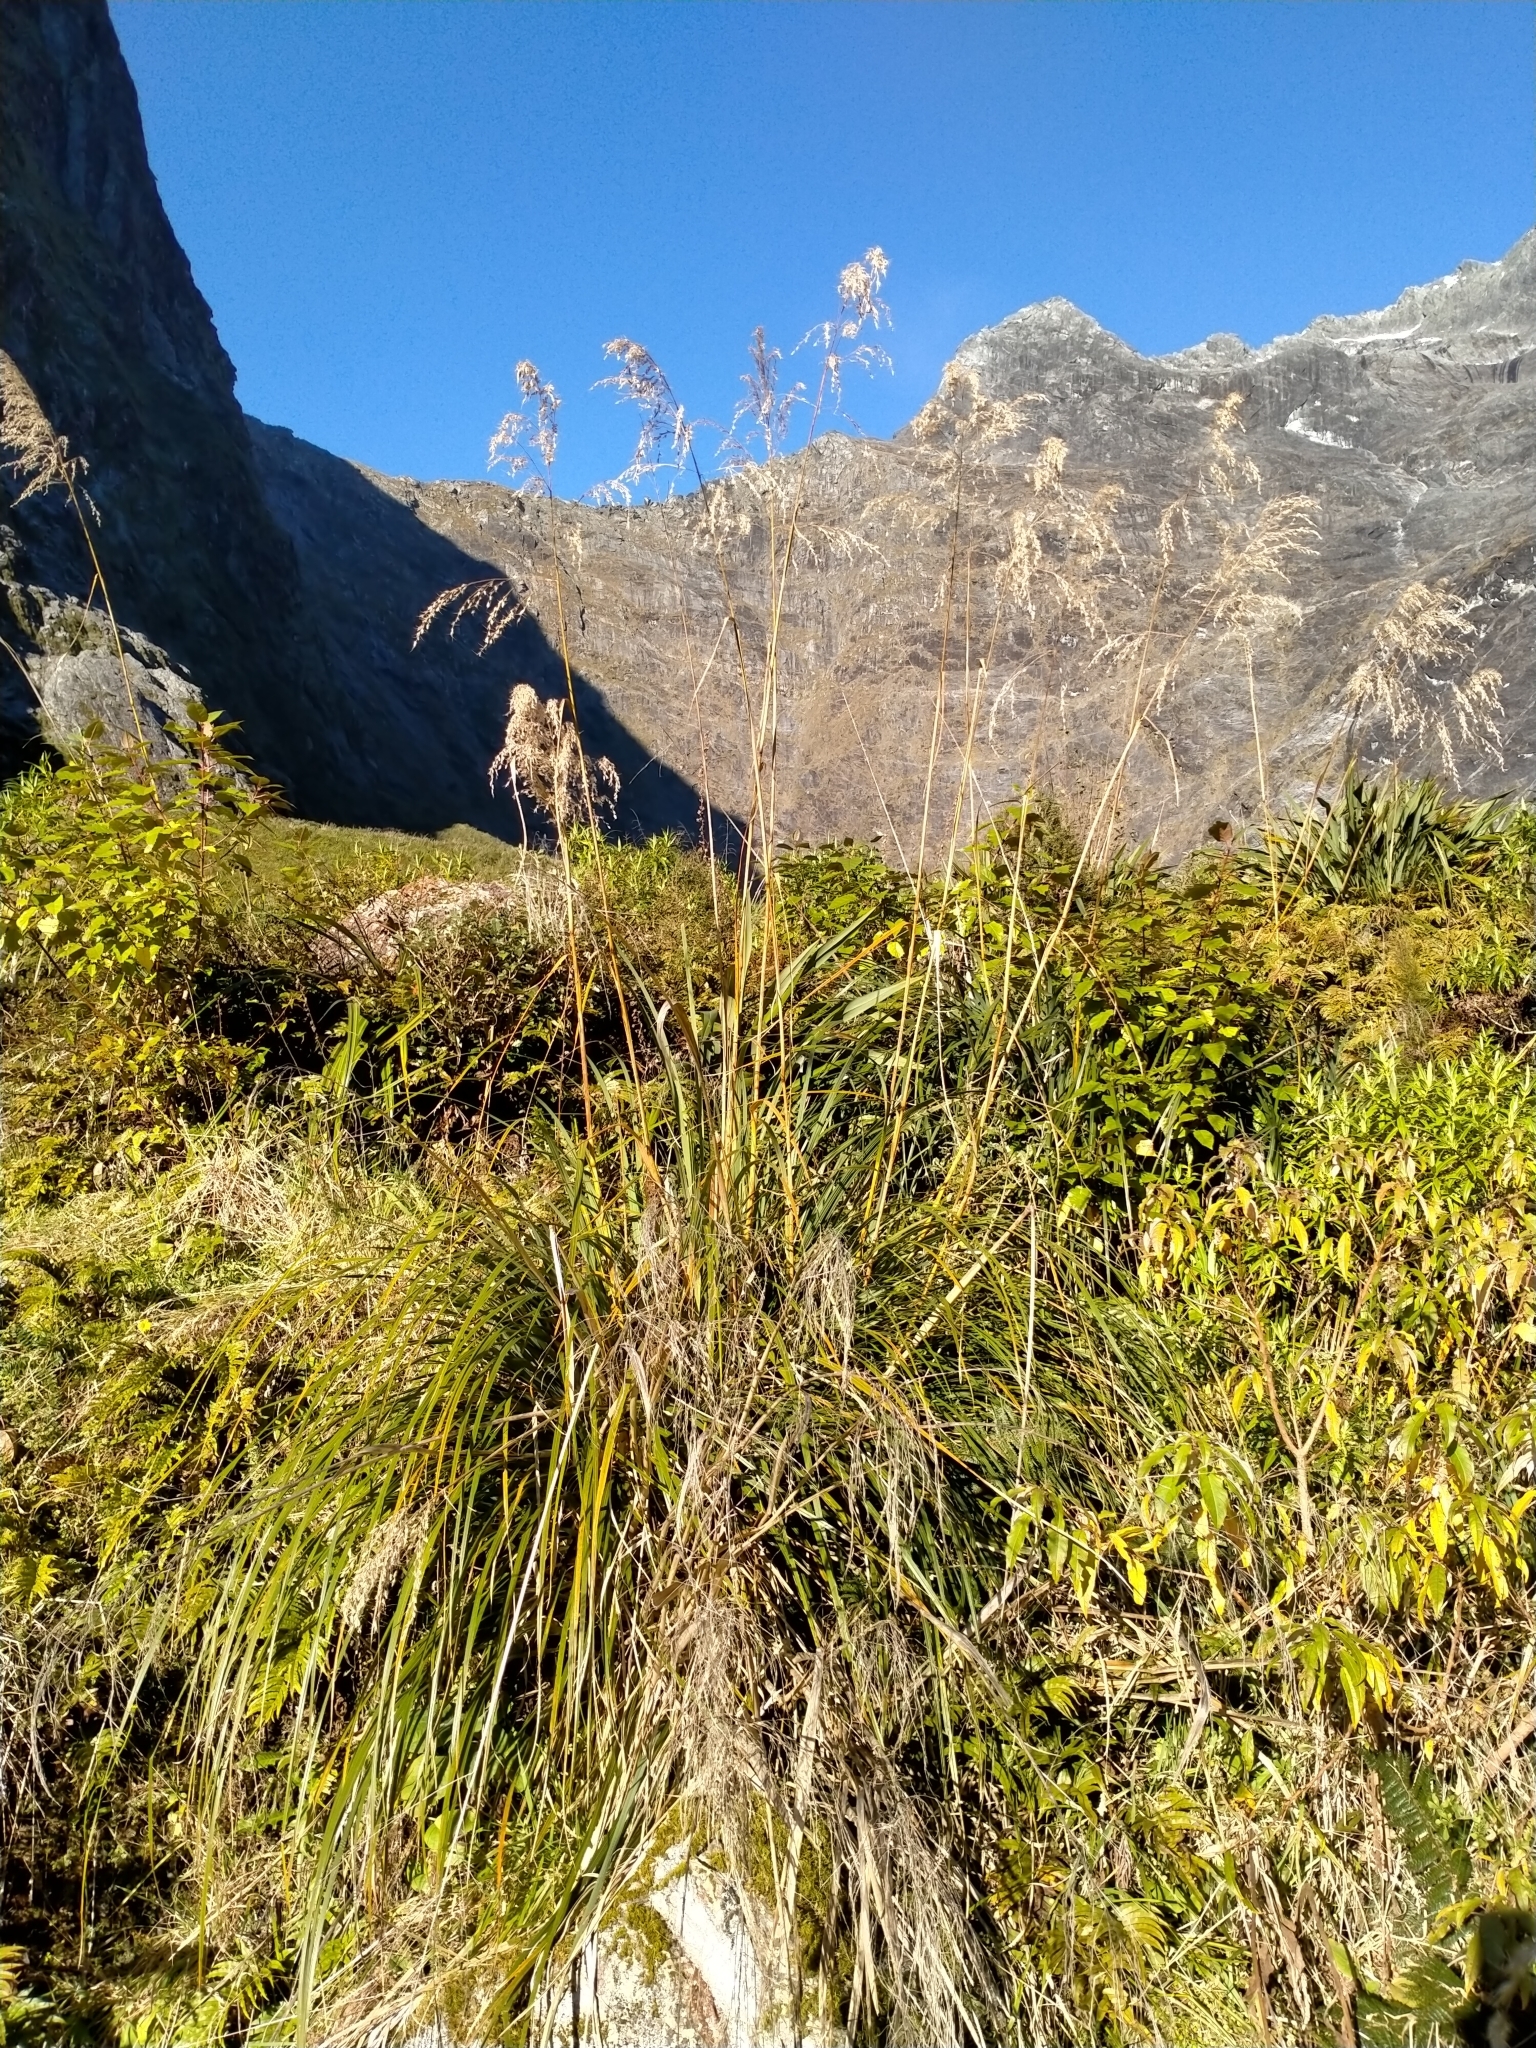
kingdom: Plantae
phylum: Tracheophyta
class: Liliopsida
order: Poales
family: Poaceae
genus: Chionochloa
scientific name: Chionochloa conspicua
